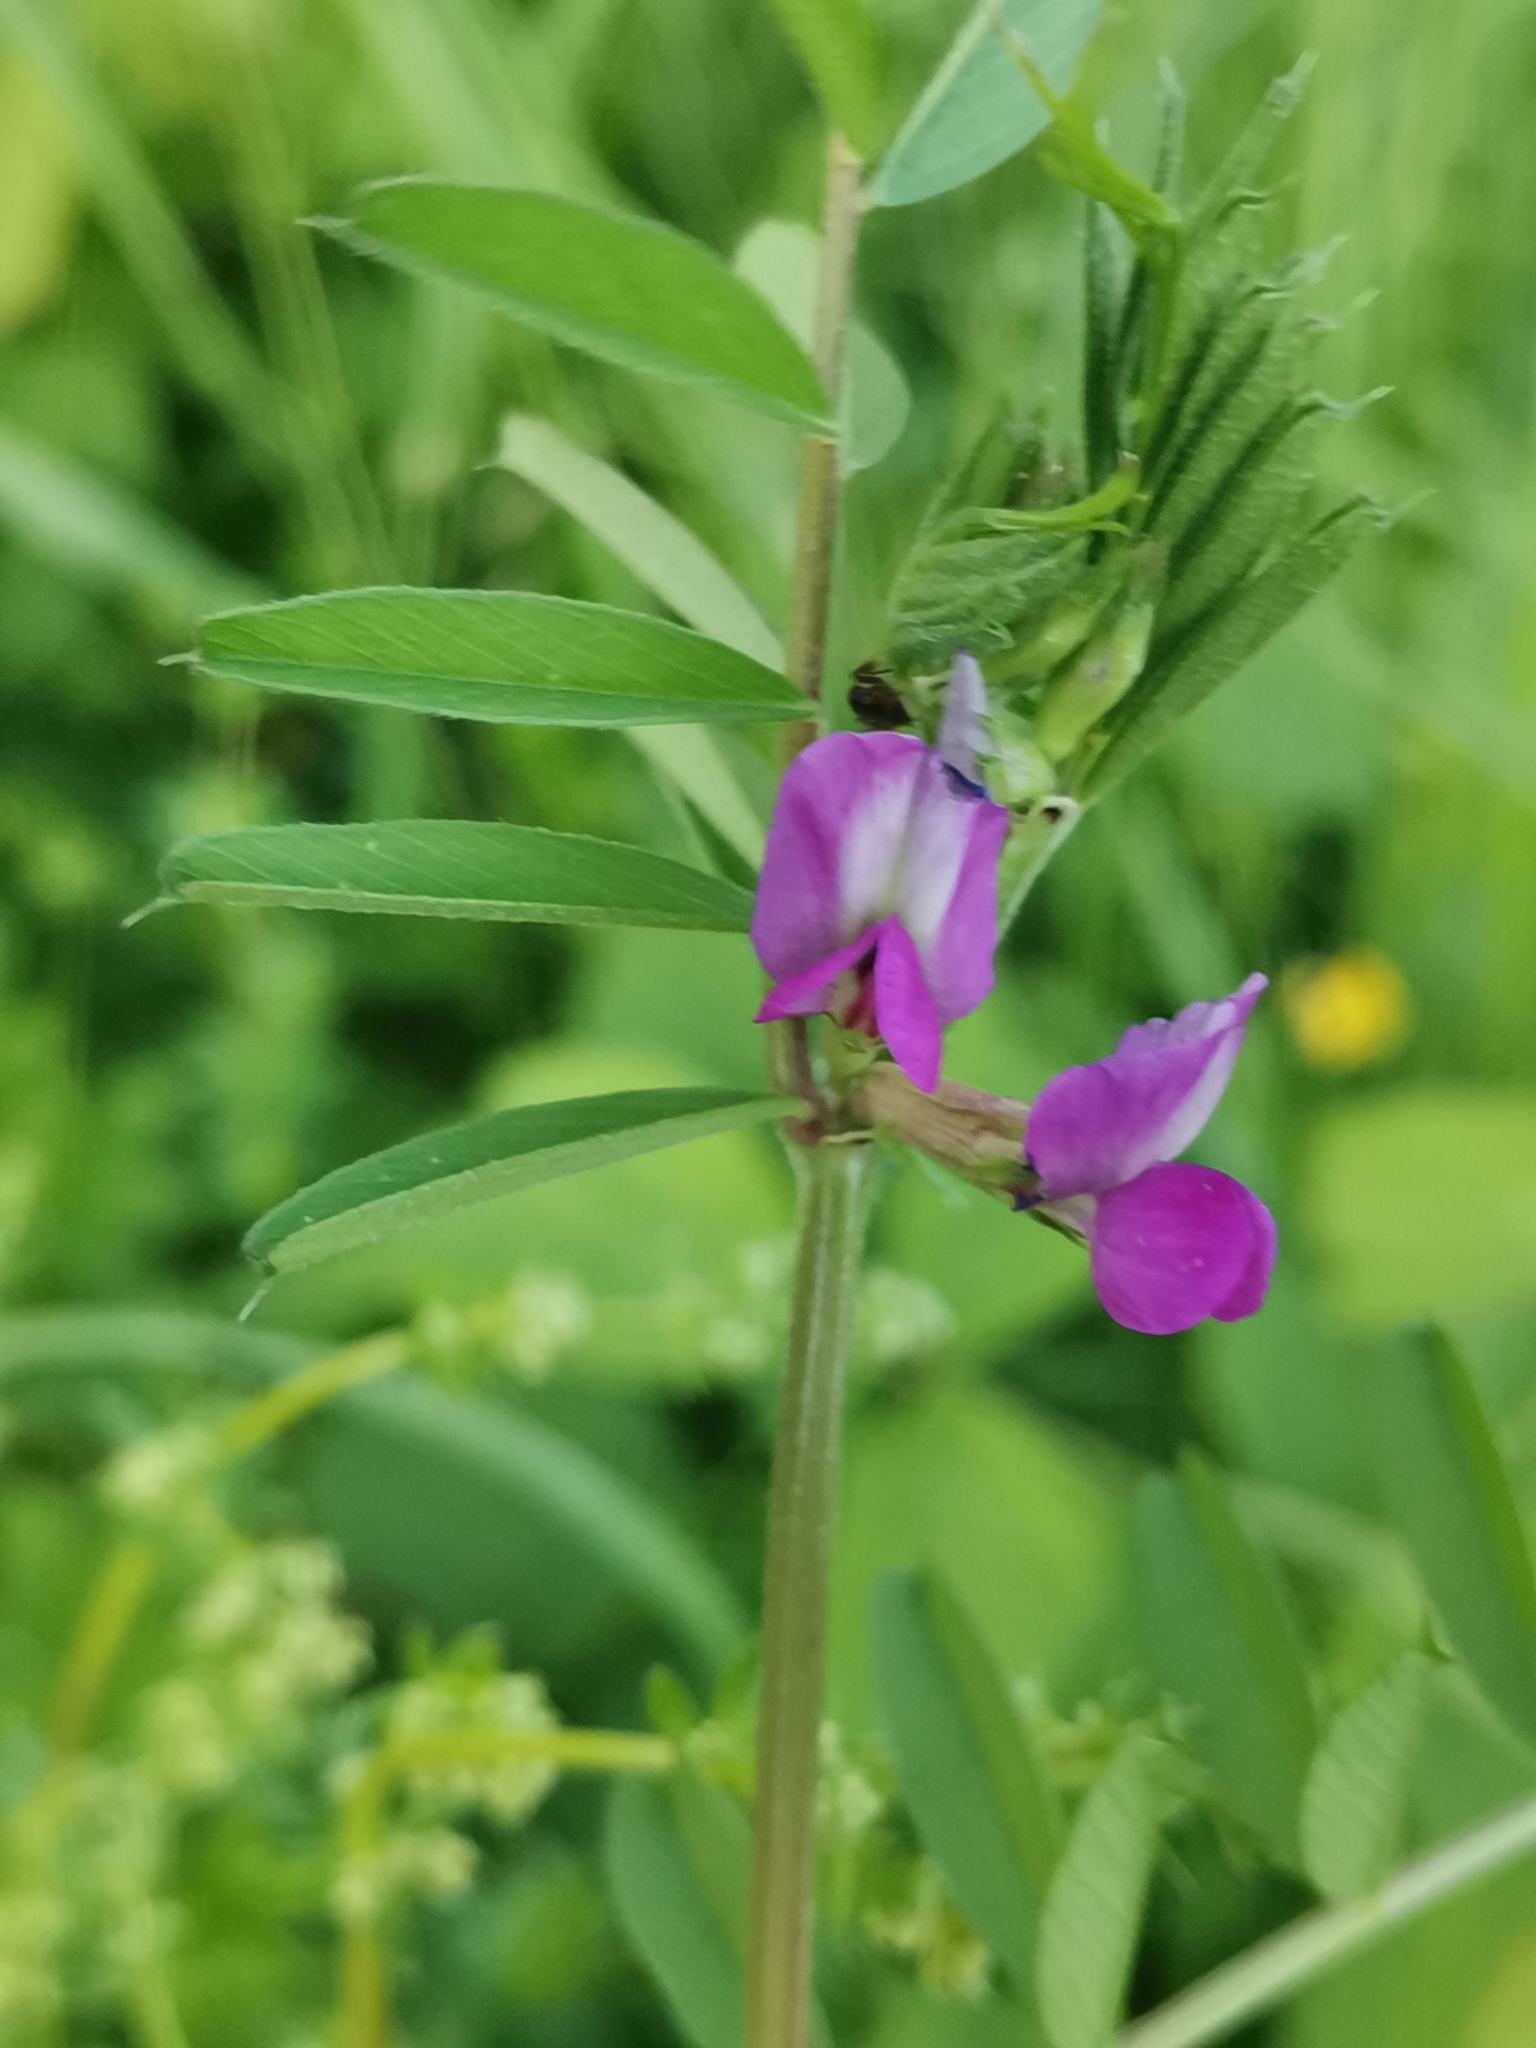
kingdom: Plantae
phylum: Tracheophyta
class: Magnoliopsida
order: Fabales
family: Fabaceae
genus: Vicia
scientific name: Vicia sativa
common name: Garden vetch
